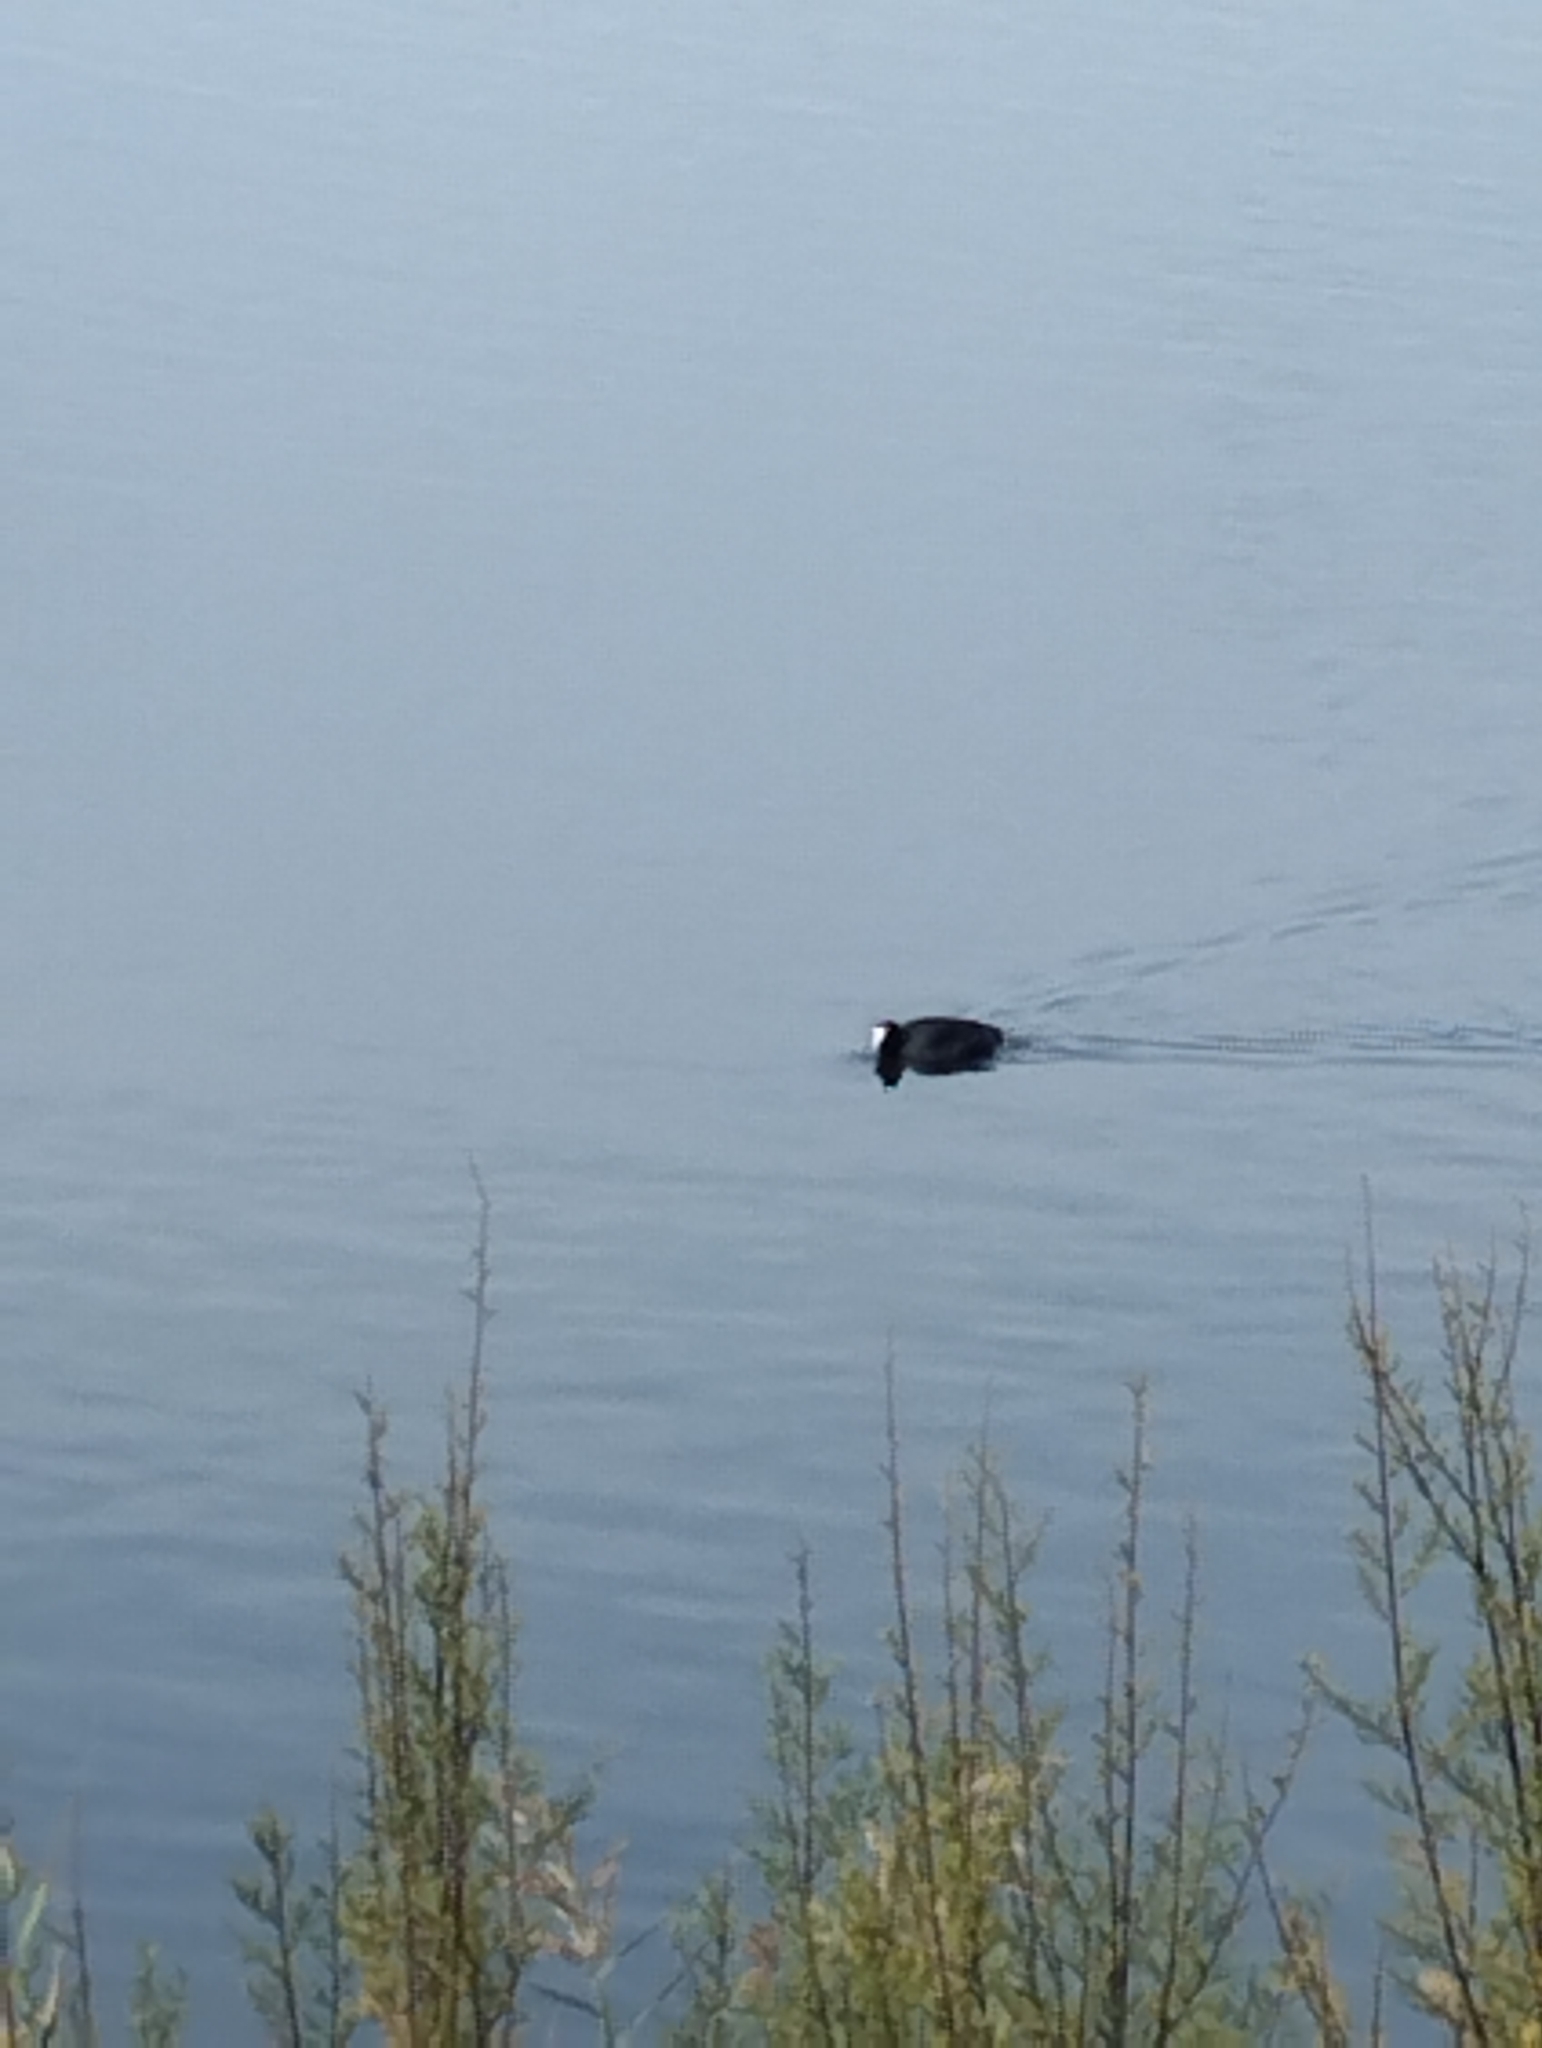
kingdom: Animalia
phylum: Chordata
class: Aves
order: Gruiformes
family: Rallidae
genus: Fulica
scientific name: Fulica atra
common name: Eurasian coot
